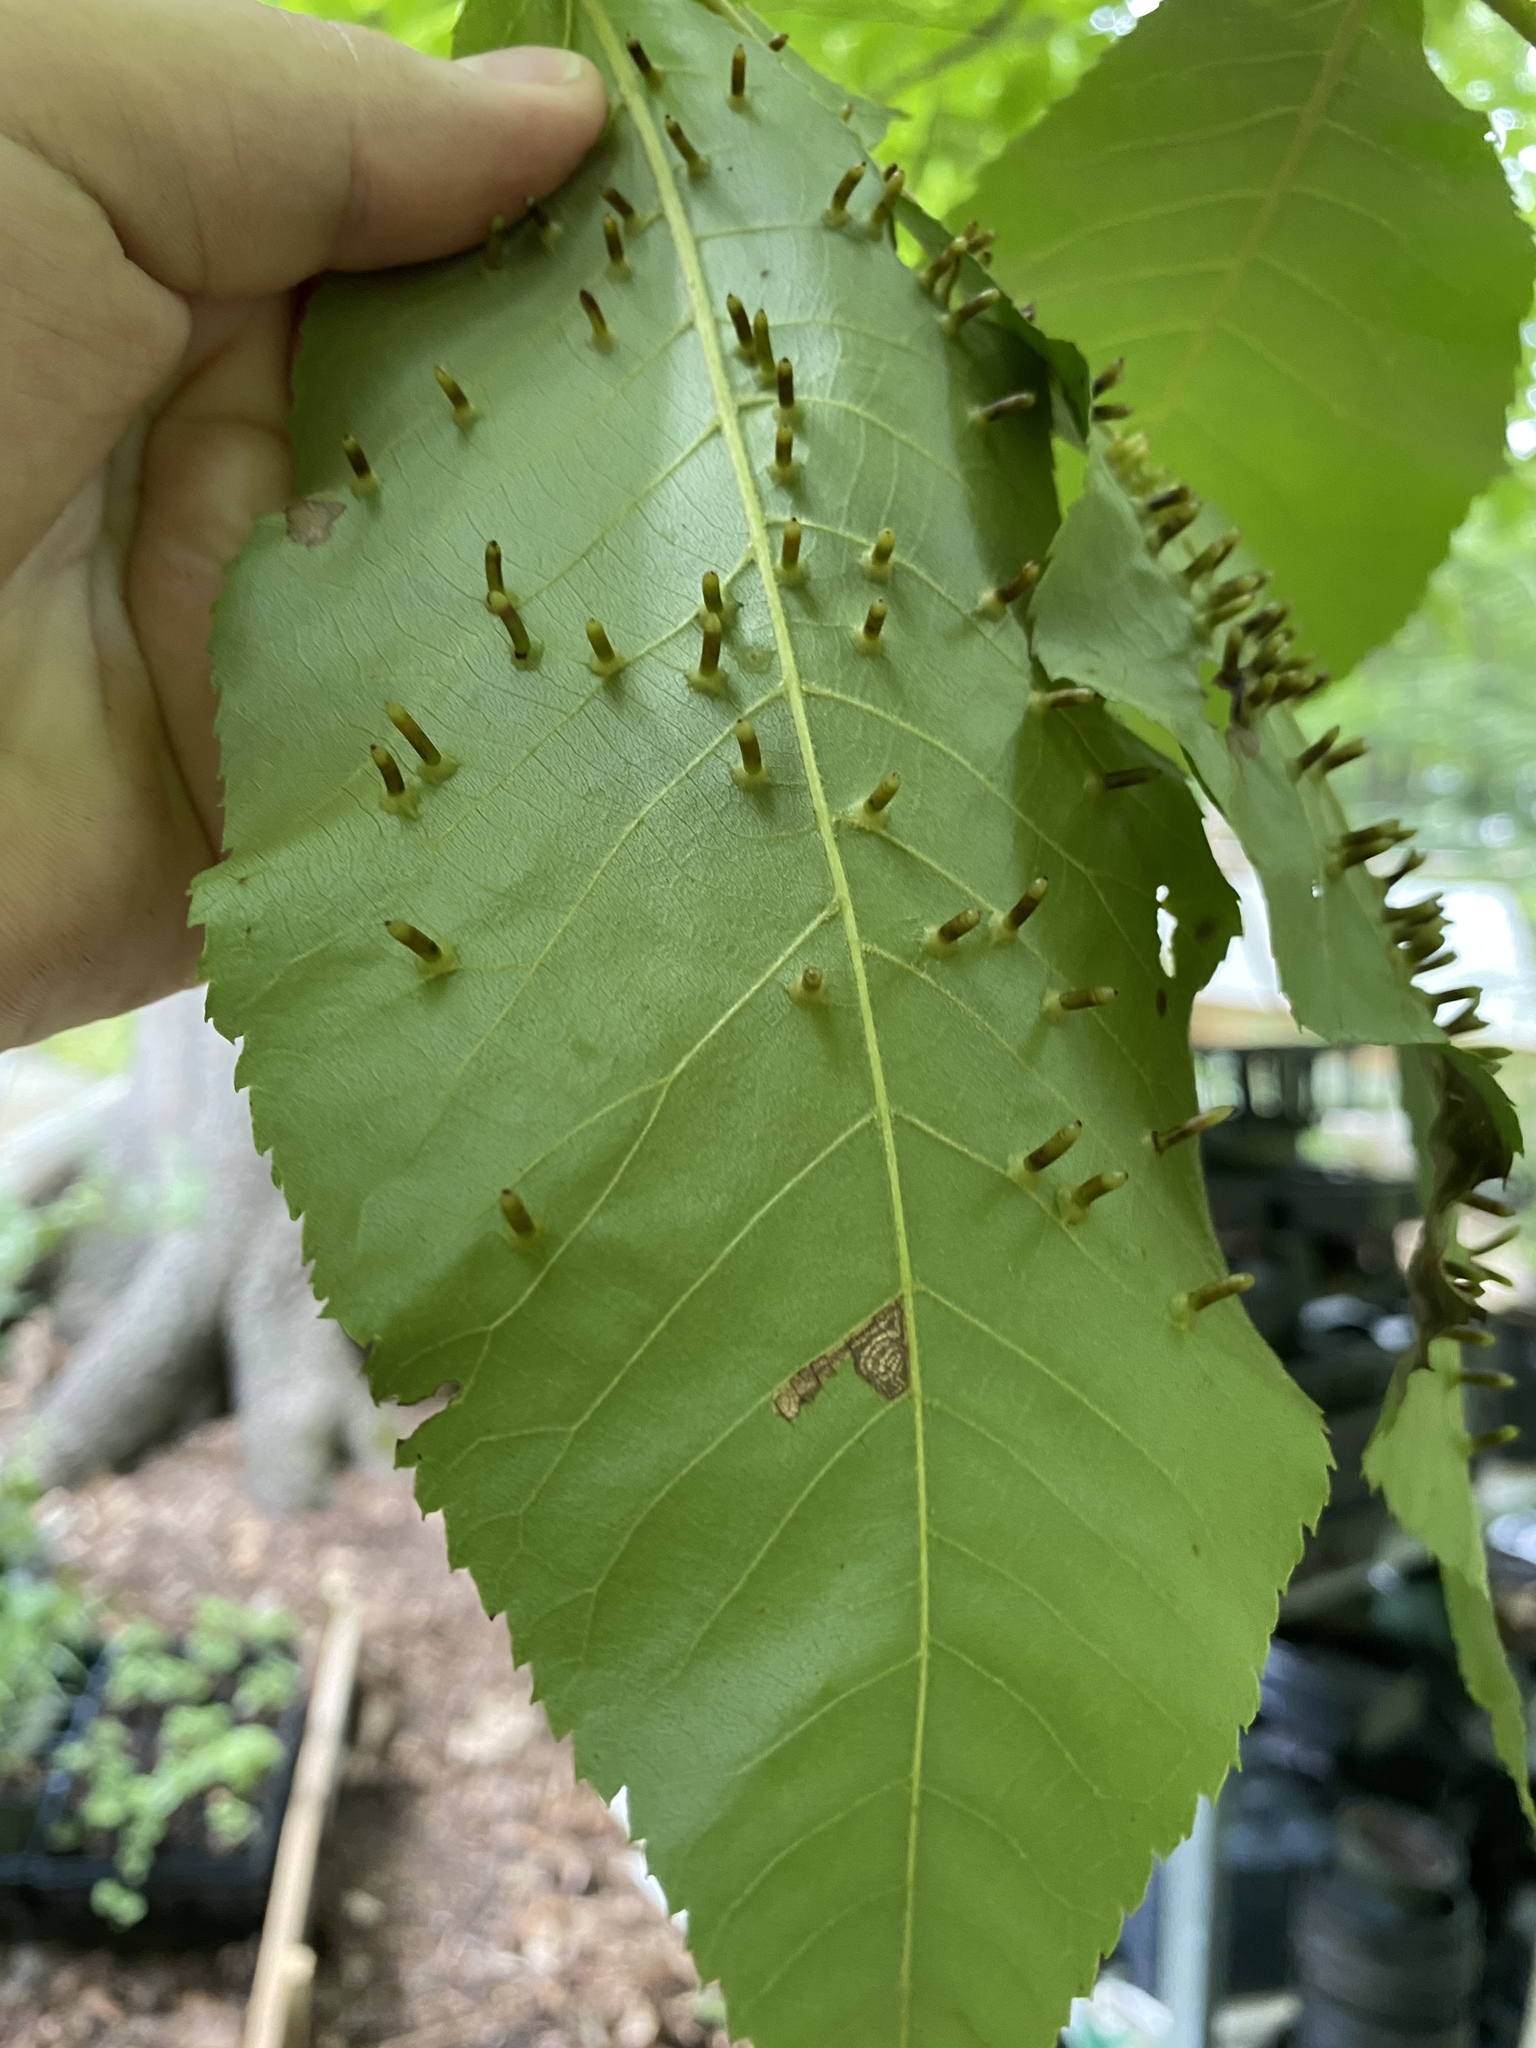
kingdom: Animalia
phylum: Arthropoda
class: Insecta
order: Diptera
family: Cecidomyiidae
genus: Caryomyia
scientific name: Caryomyia tubicola
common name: Hickory bullet gall midge
